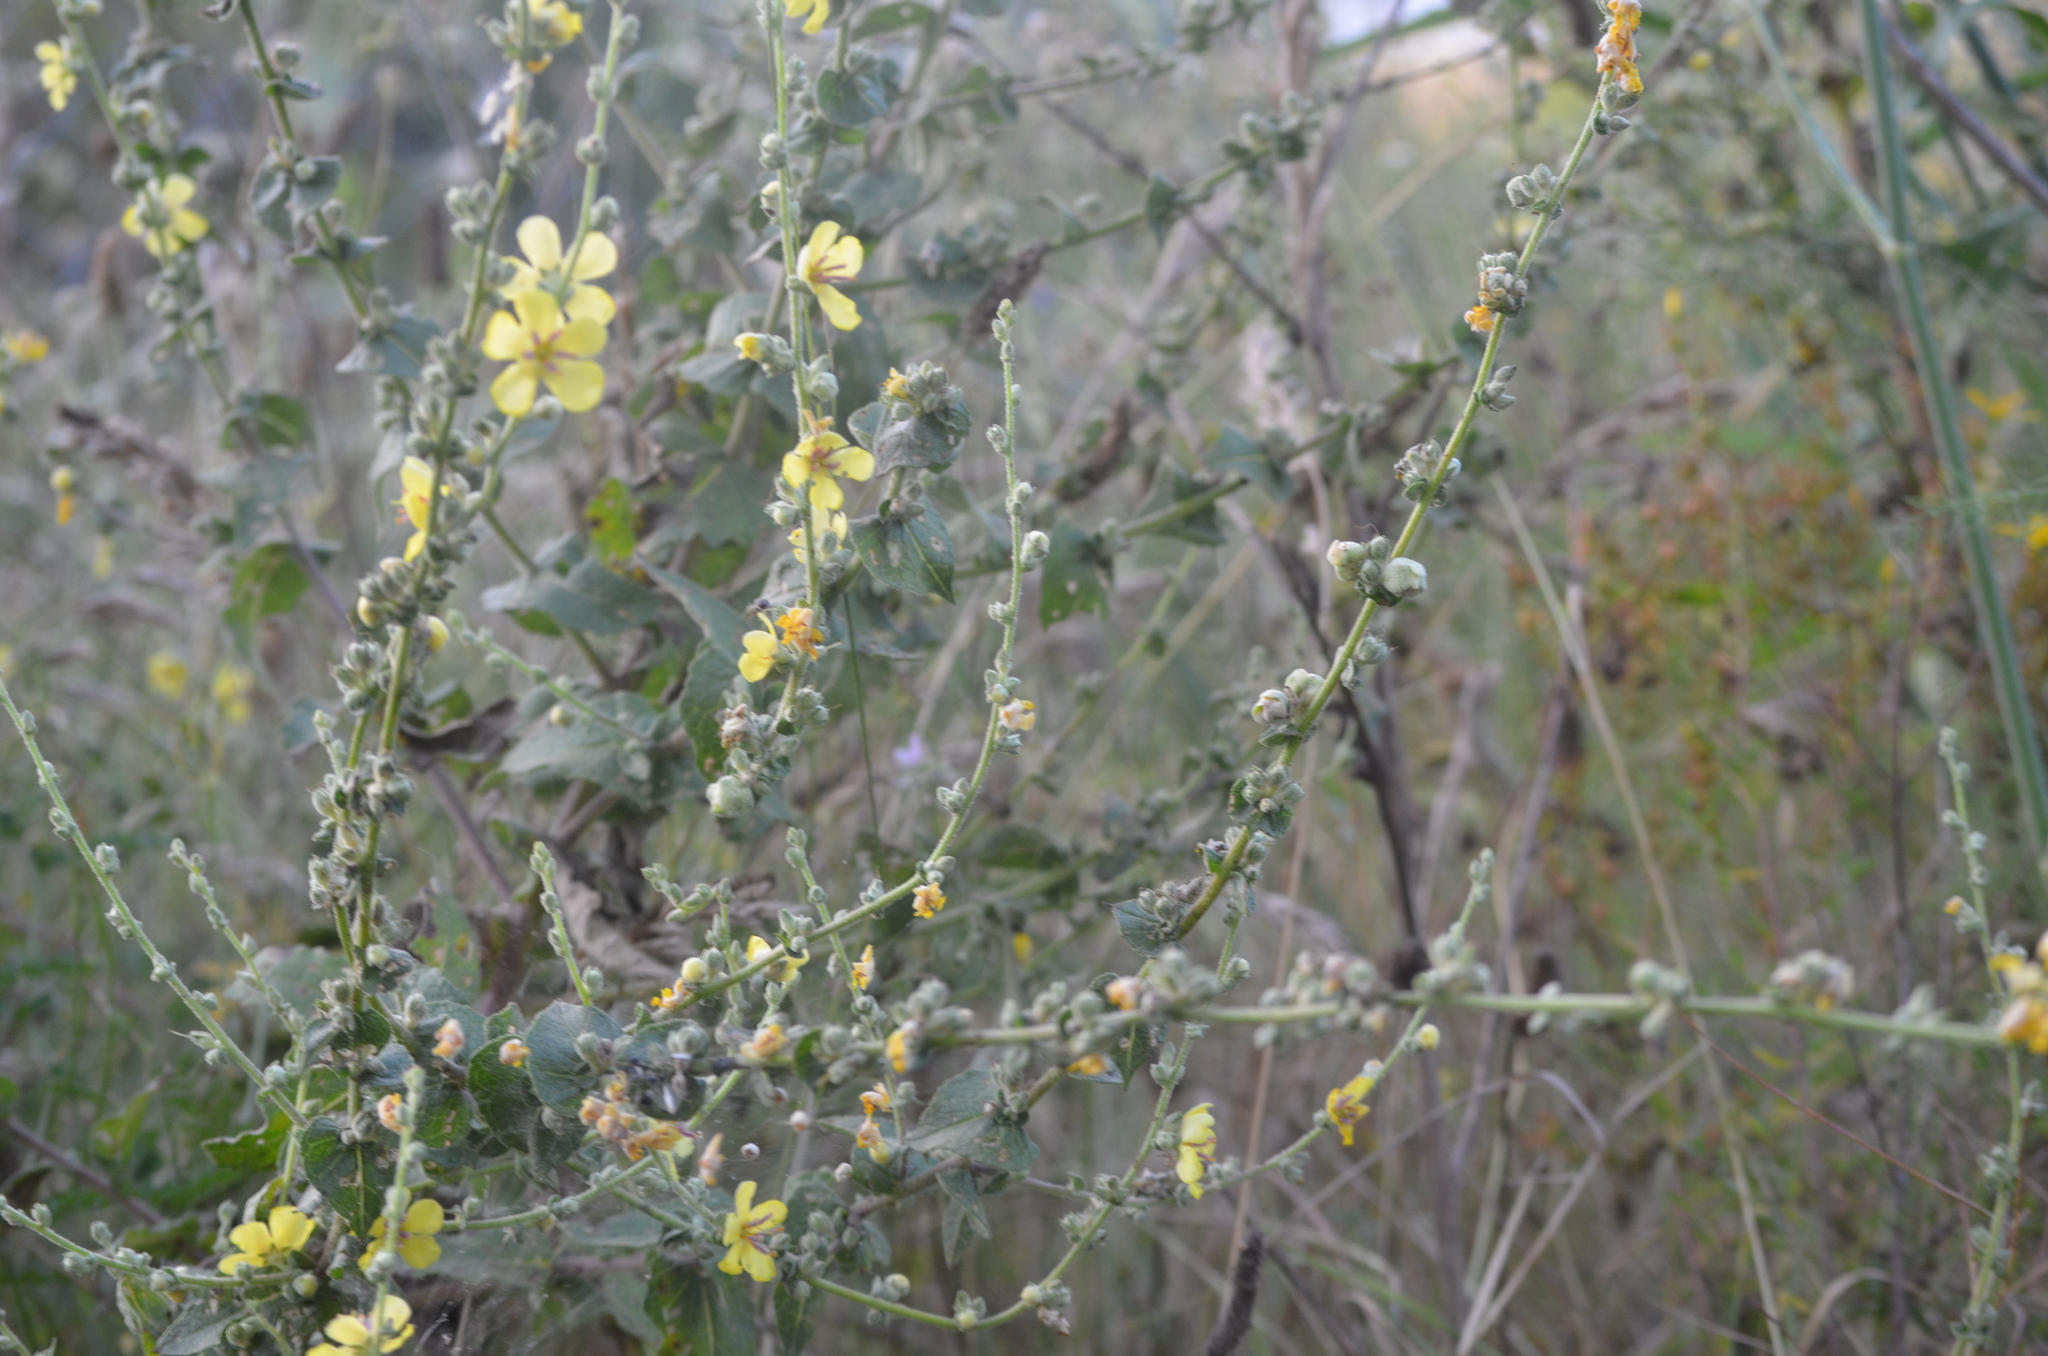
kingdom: Plantae
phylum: Tracheophyta
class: Magnoliopsida
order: Lamiales
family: Scrophulariaceae
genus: Verbascum
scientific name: Verbascum sinuatum
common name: Wavyleaf mullein
